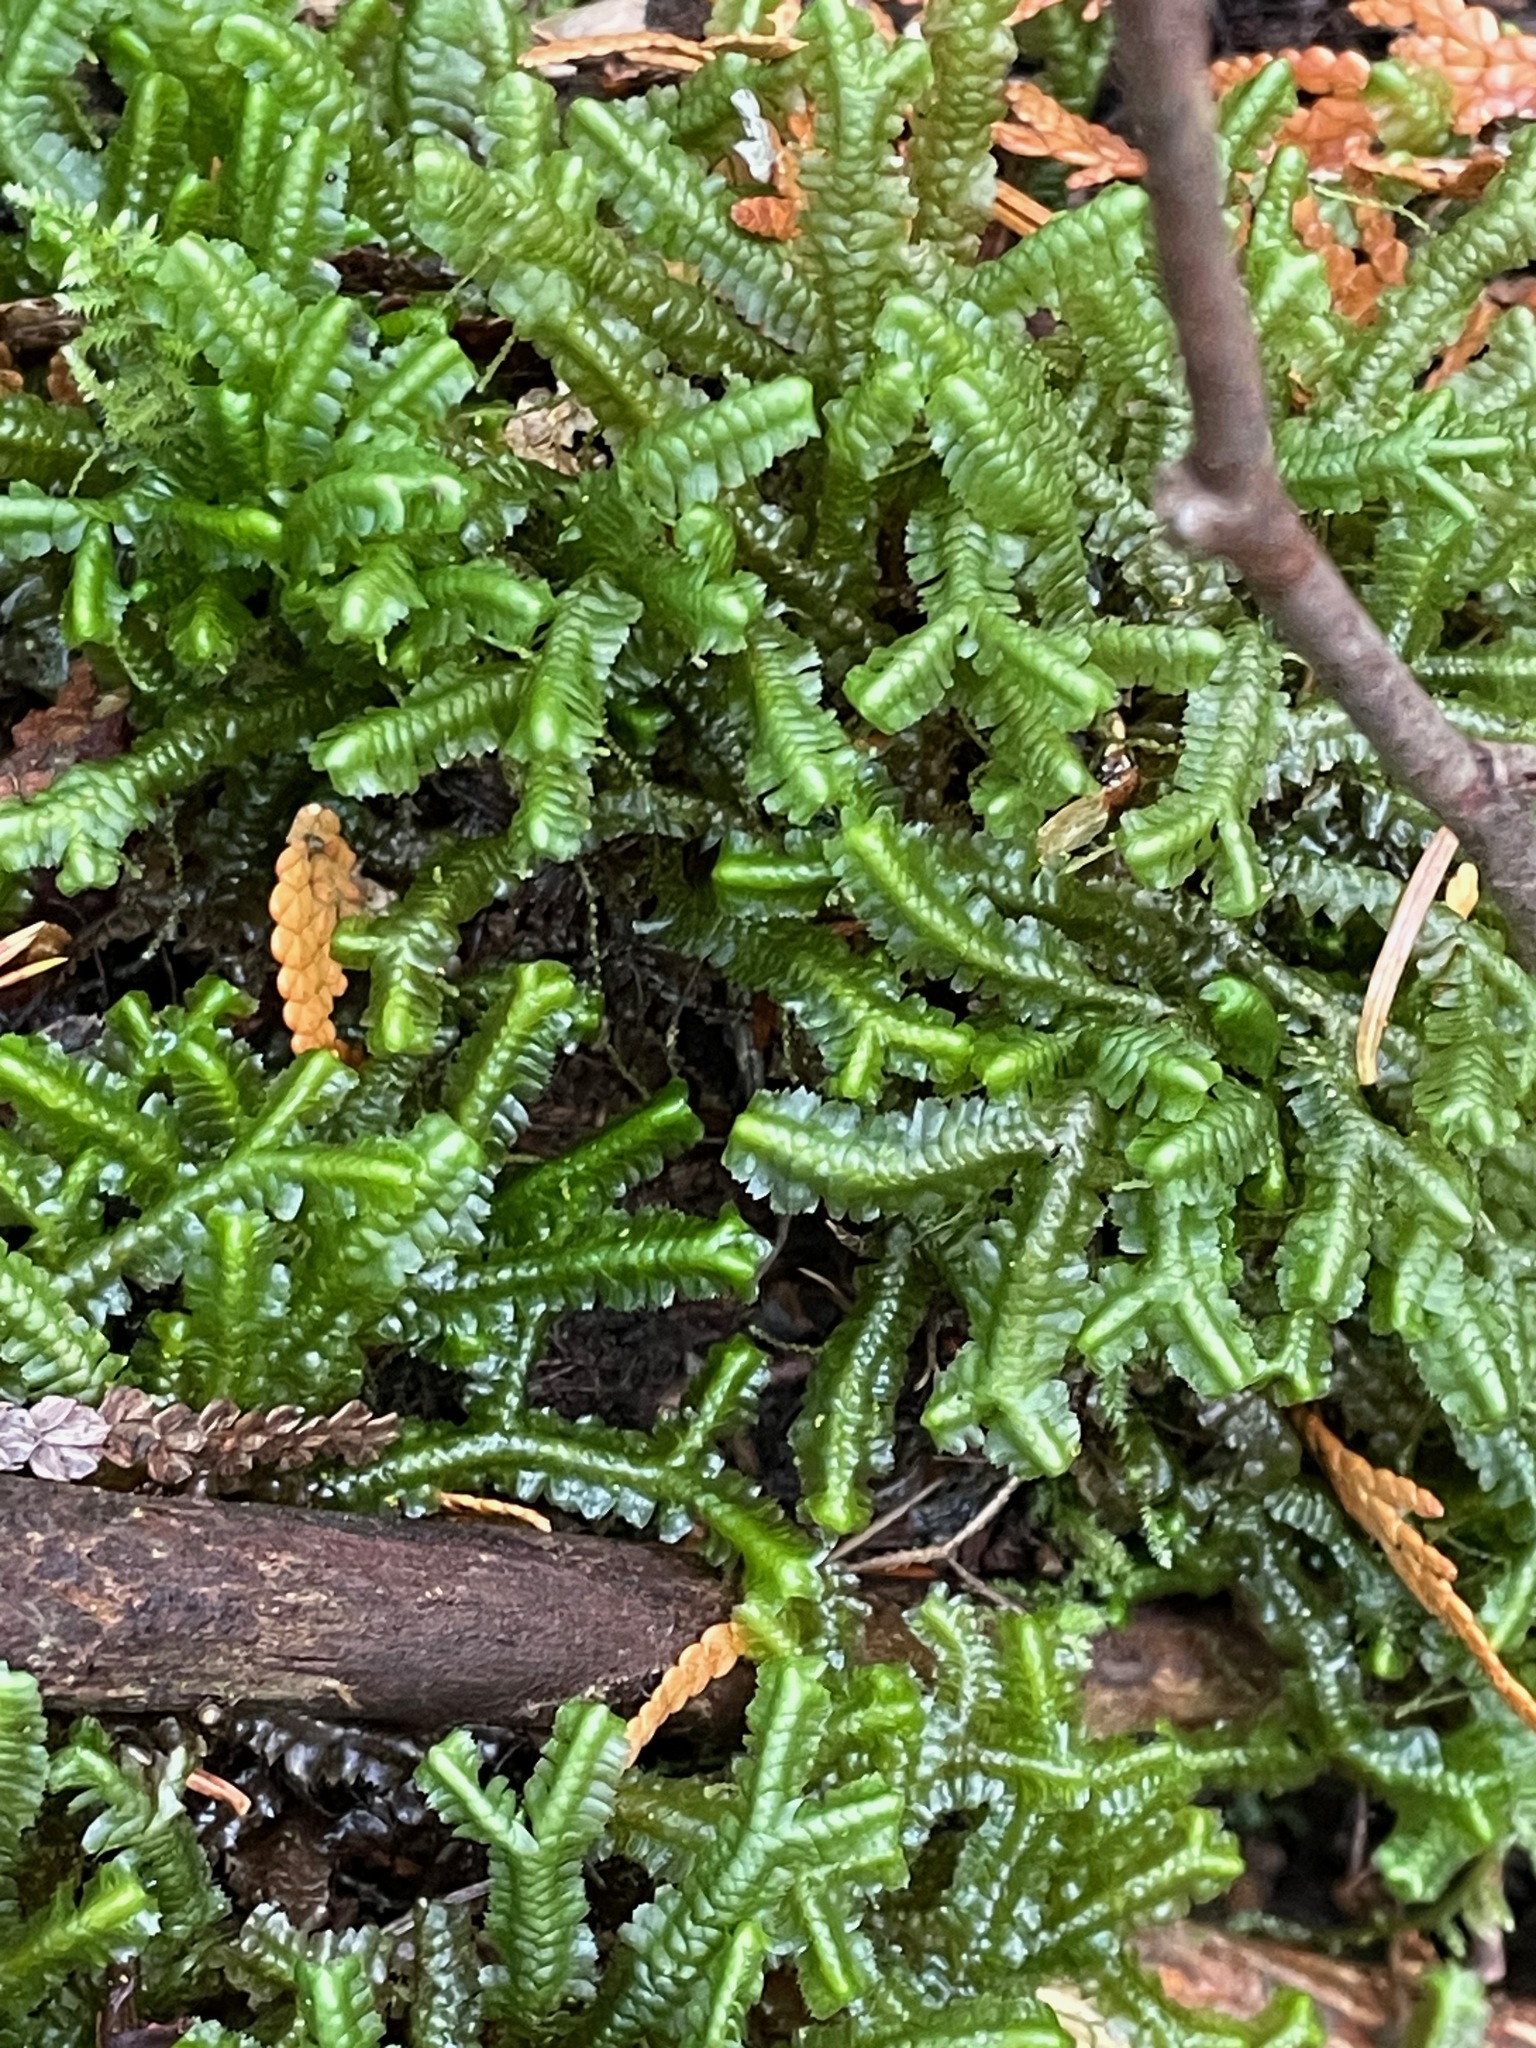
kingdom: Plantae
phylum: Marchantiophyta
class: Jungermanniopsida
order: Jungermanniales
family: Lepidoziaceae
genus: Bazzania
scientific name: Bazzania trilobata
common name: Three-lobed whipwort
